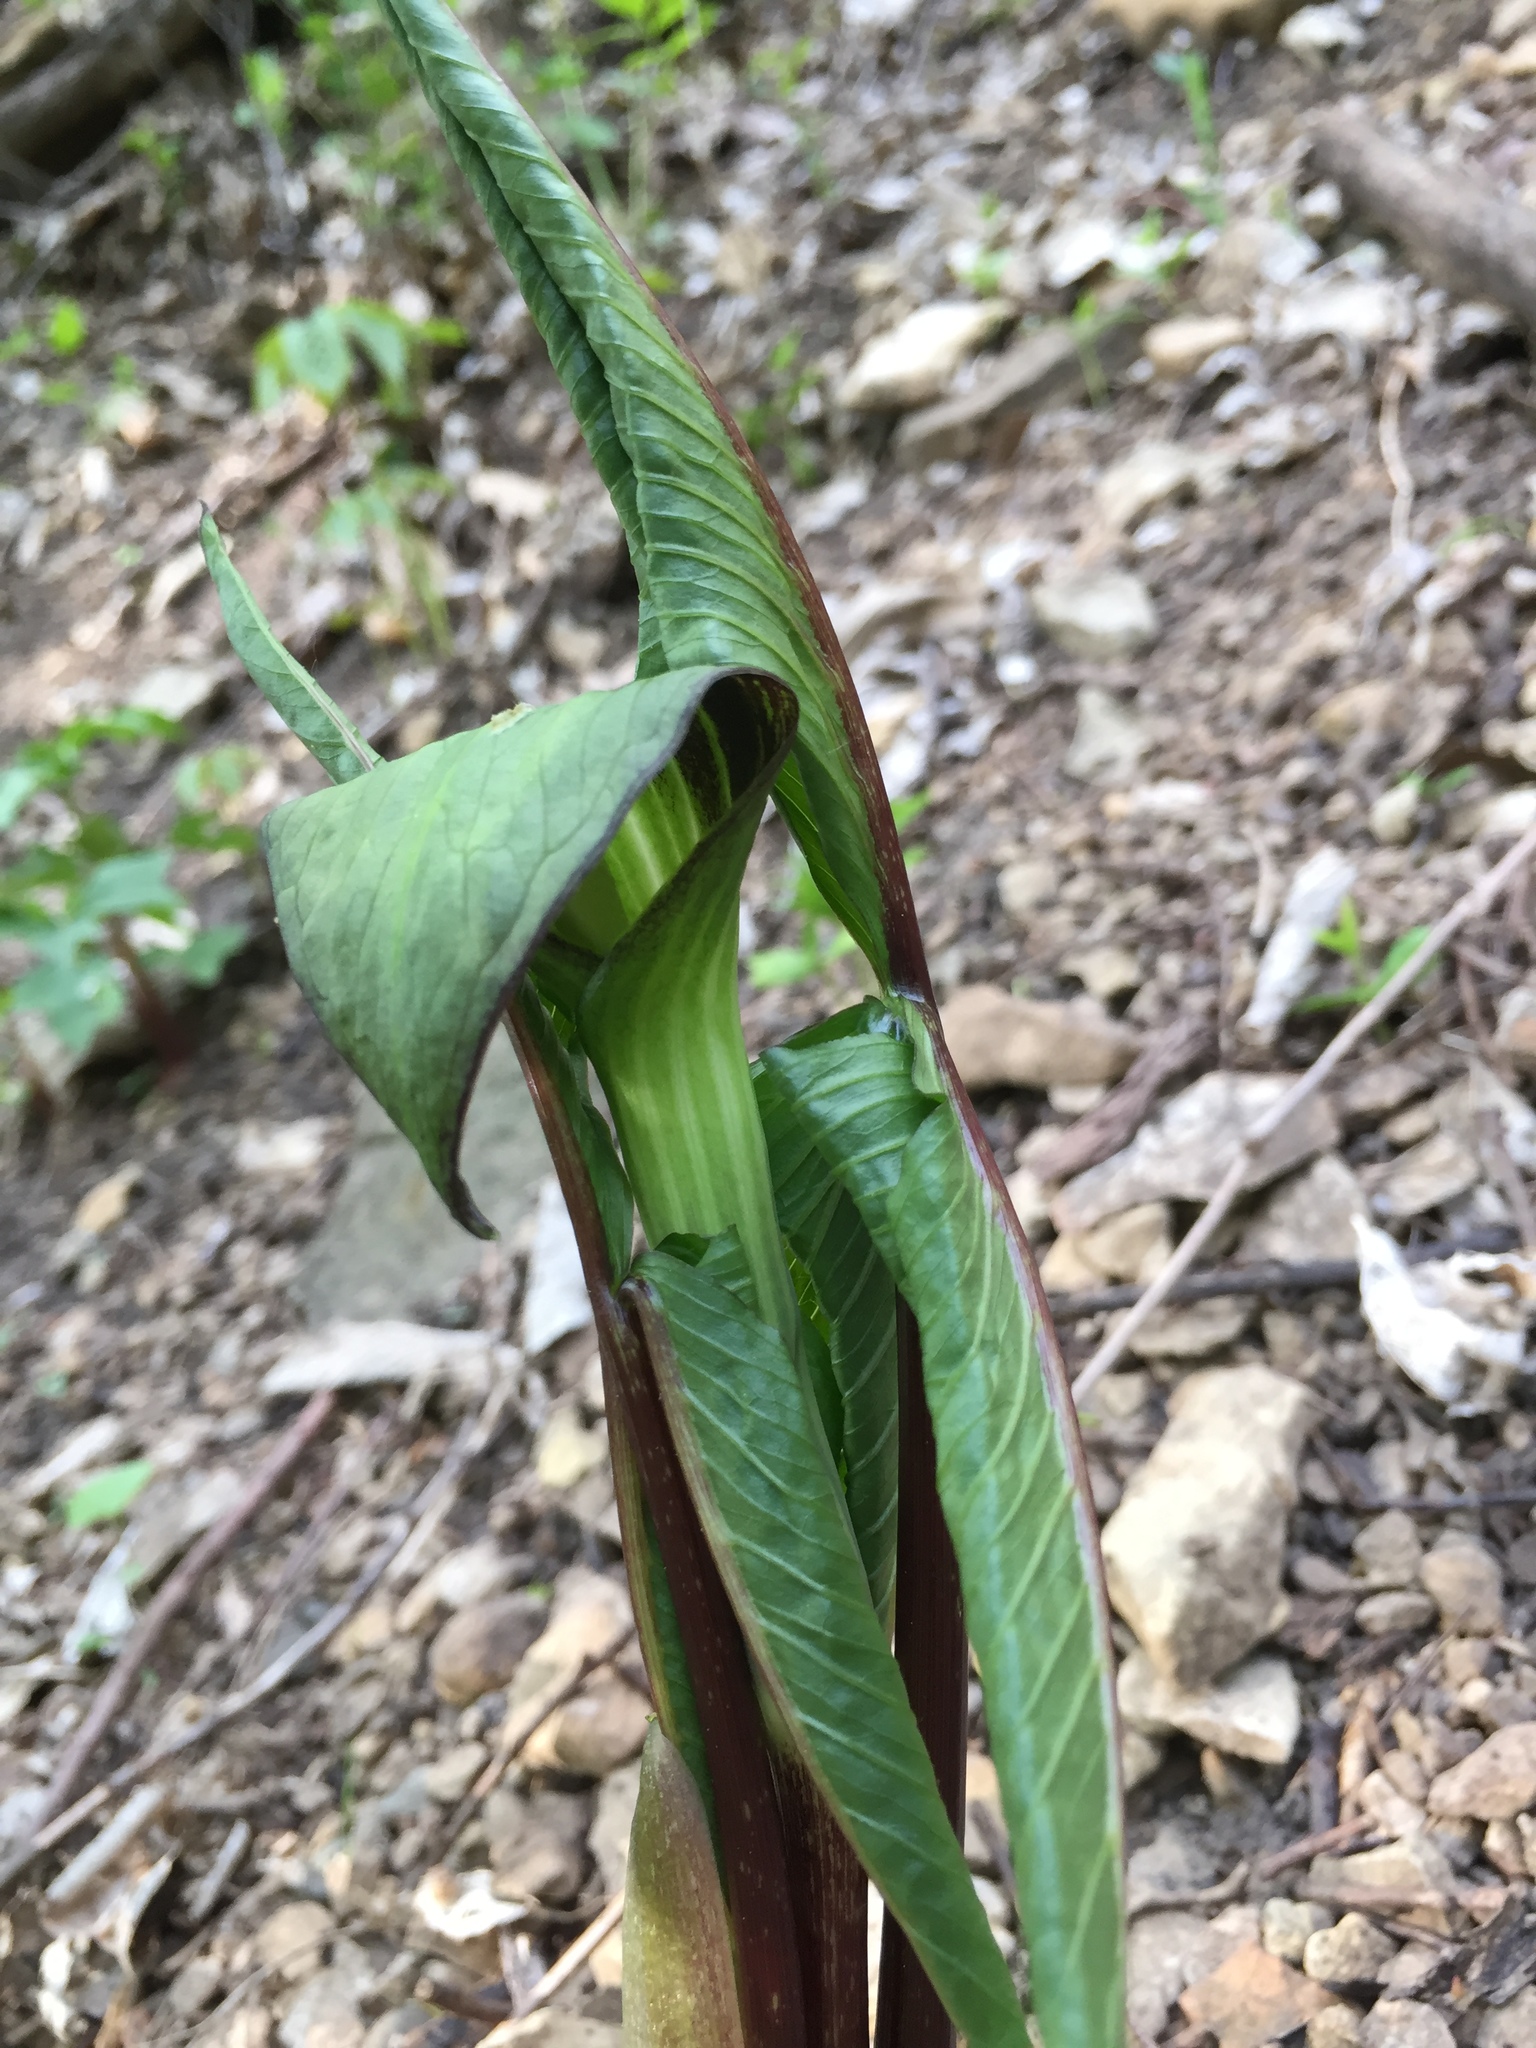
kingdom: Plantae
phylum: Tracheophyta
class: Liliopsida
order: Alismatales
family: Araceae
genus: Arisaema
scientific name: Arisaema triphyllum
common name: Jack-in-the-pulpit
